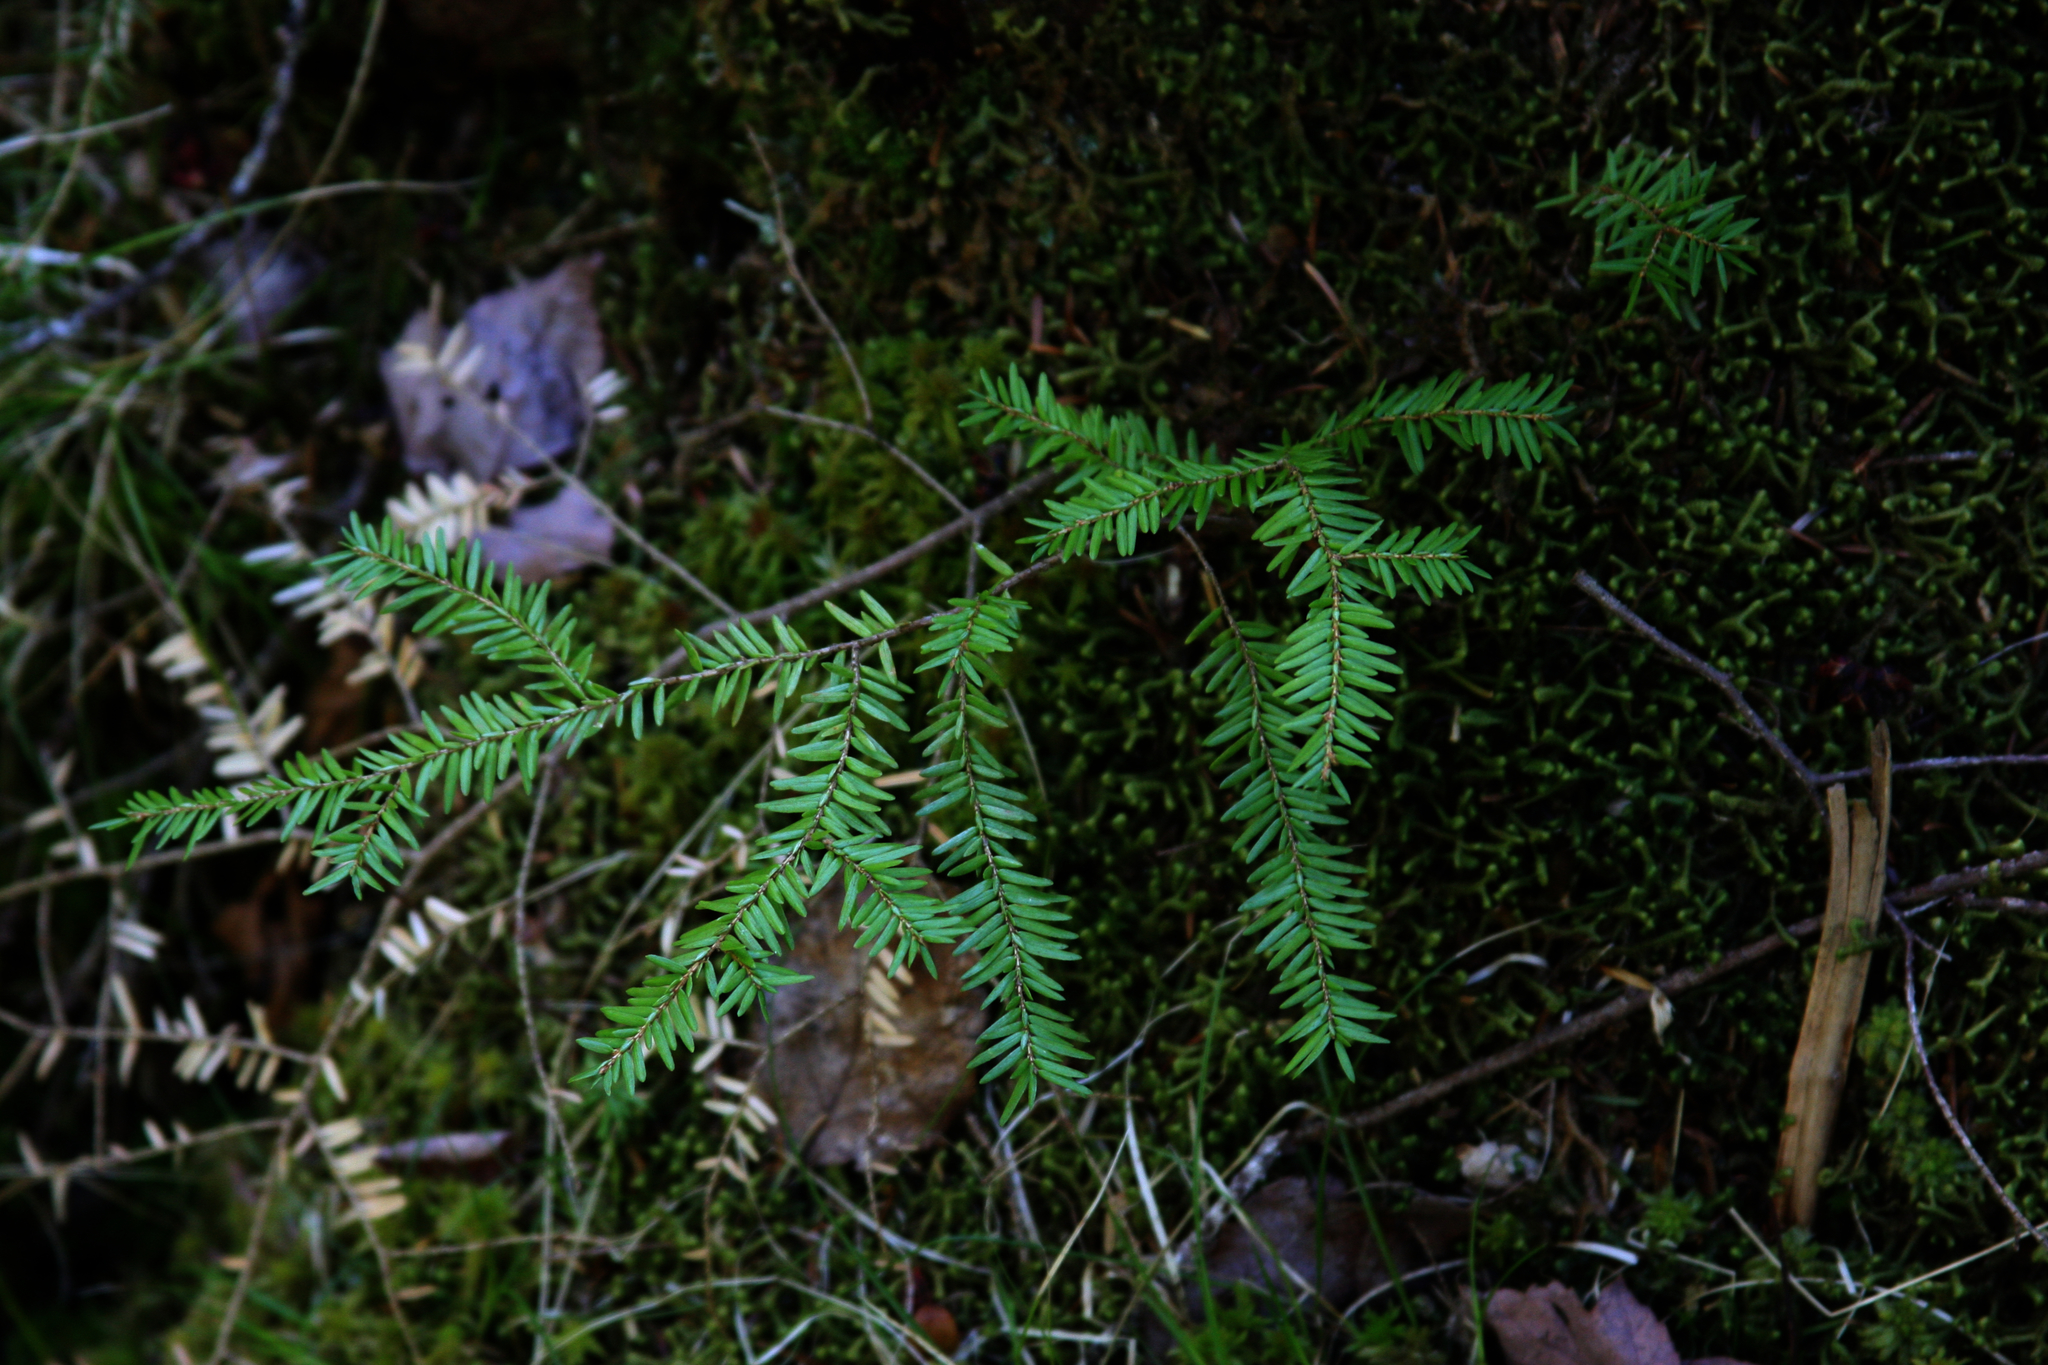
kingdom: Plantae
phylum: Tracheophyta
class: Pinopsida
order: Pinales
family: Pinaceae
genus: Tsuga
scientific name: Tsuga canadensis
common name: Eastern hemlock
